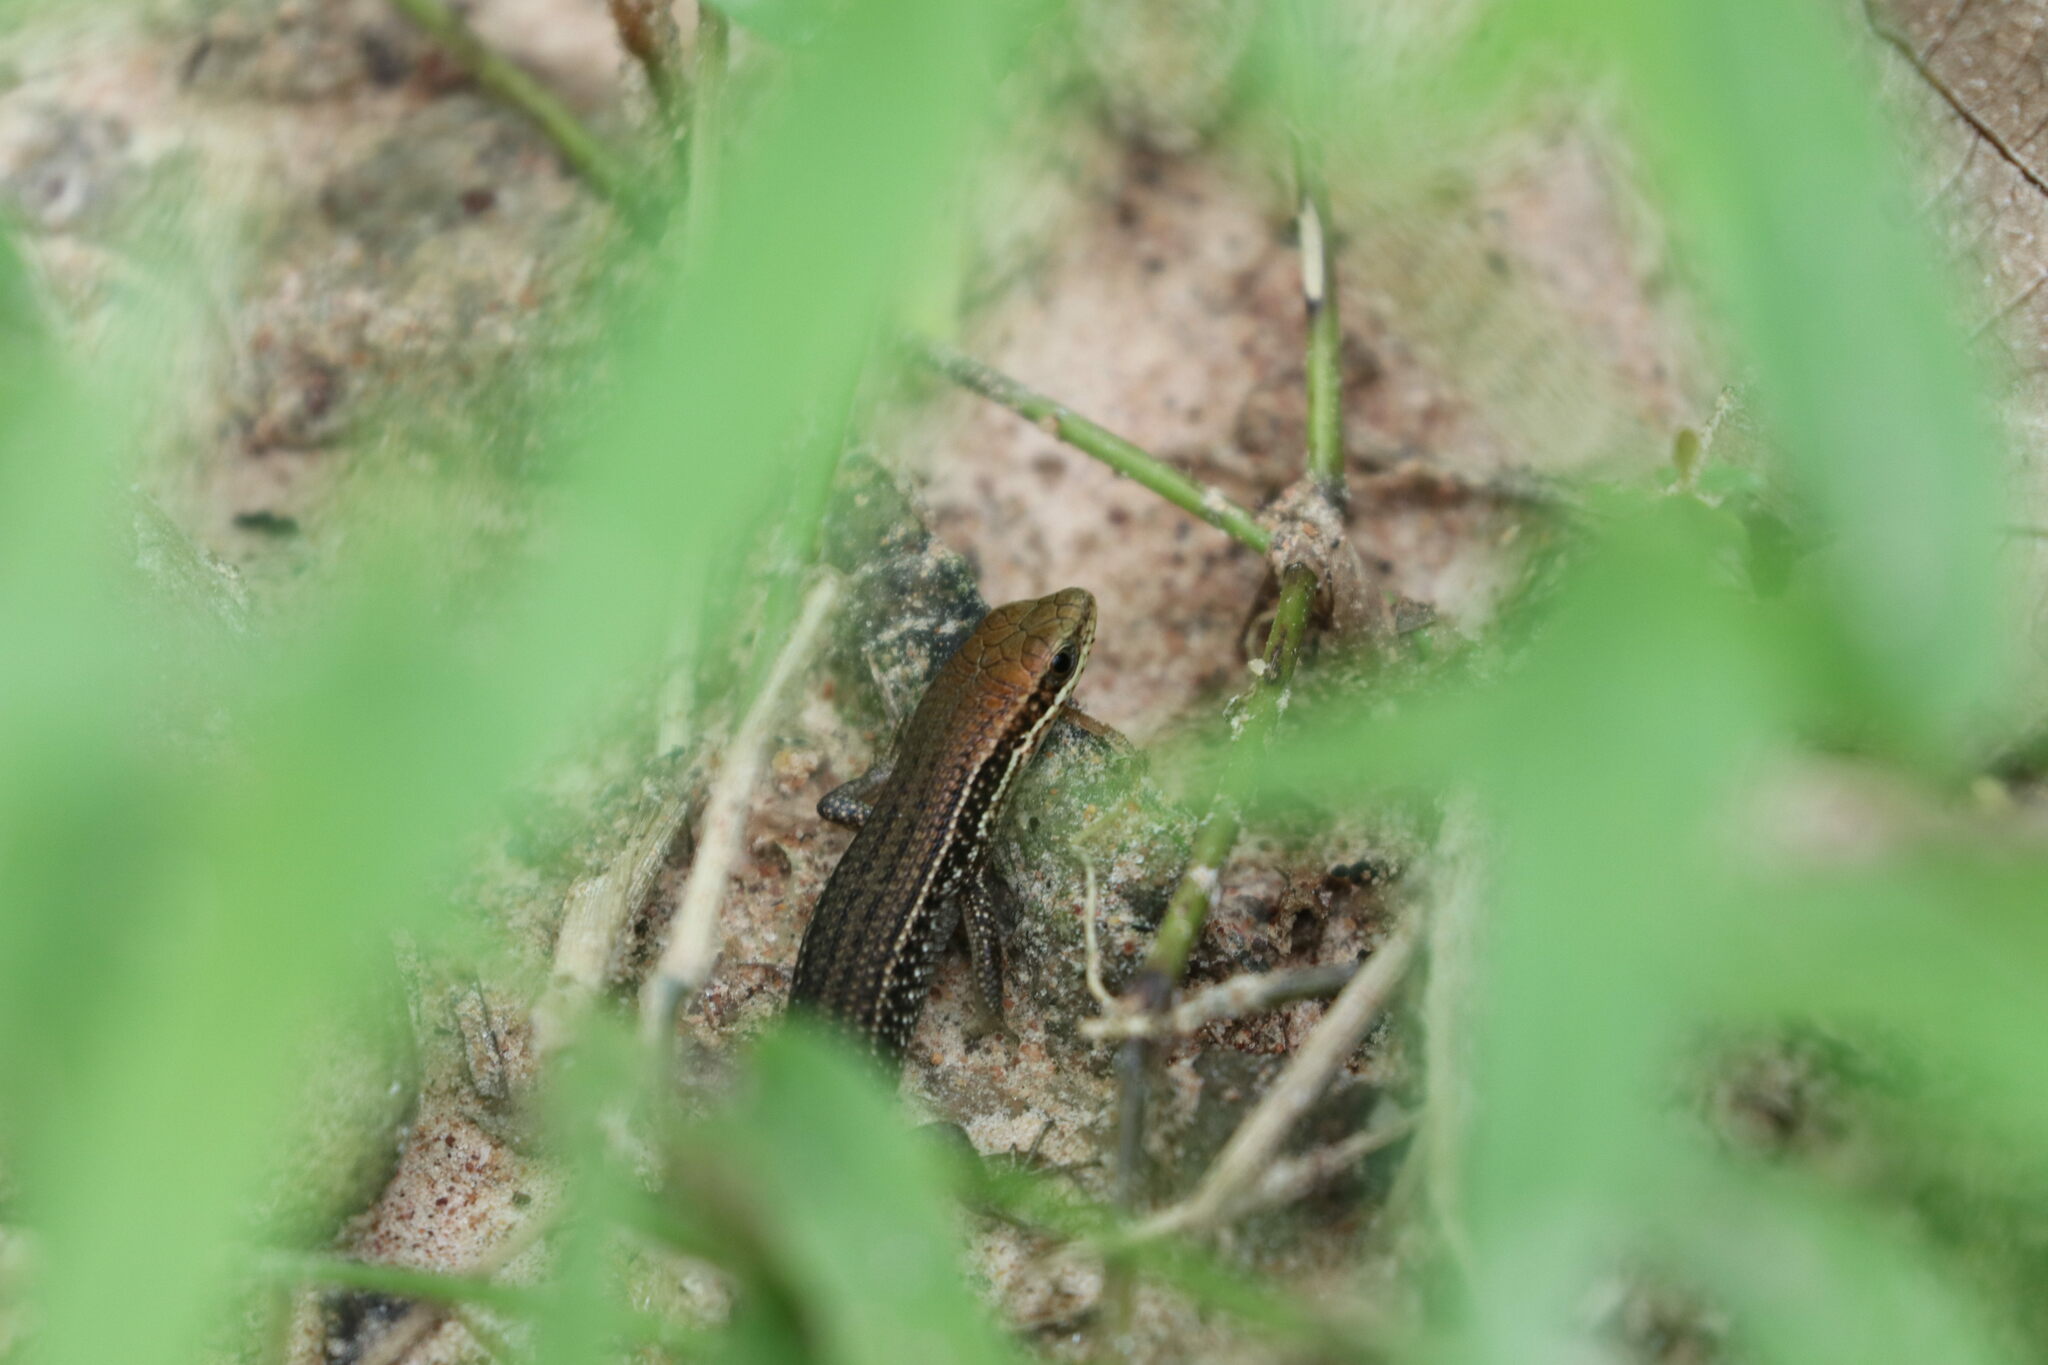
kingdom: Animalia
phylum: Chordata
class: Squamata
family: Scincidae
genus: Eutropis
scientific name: Eutropis macularia
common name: Bronze mabuya
